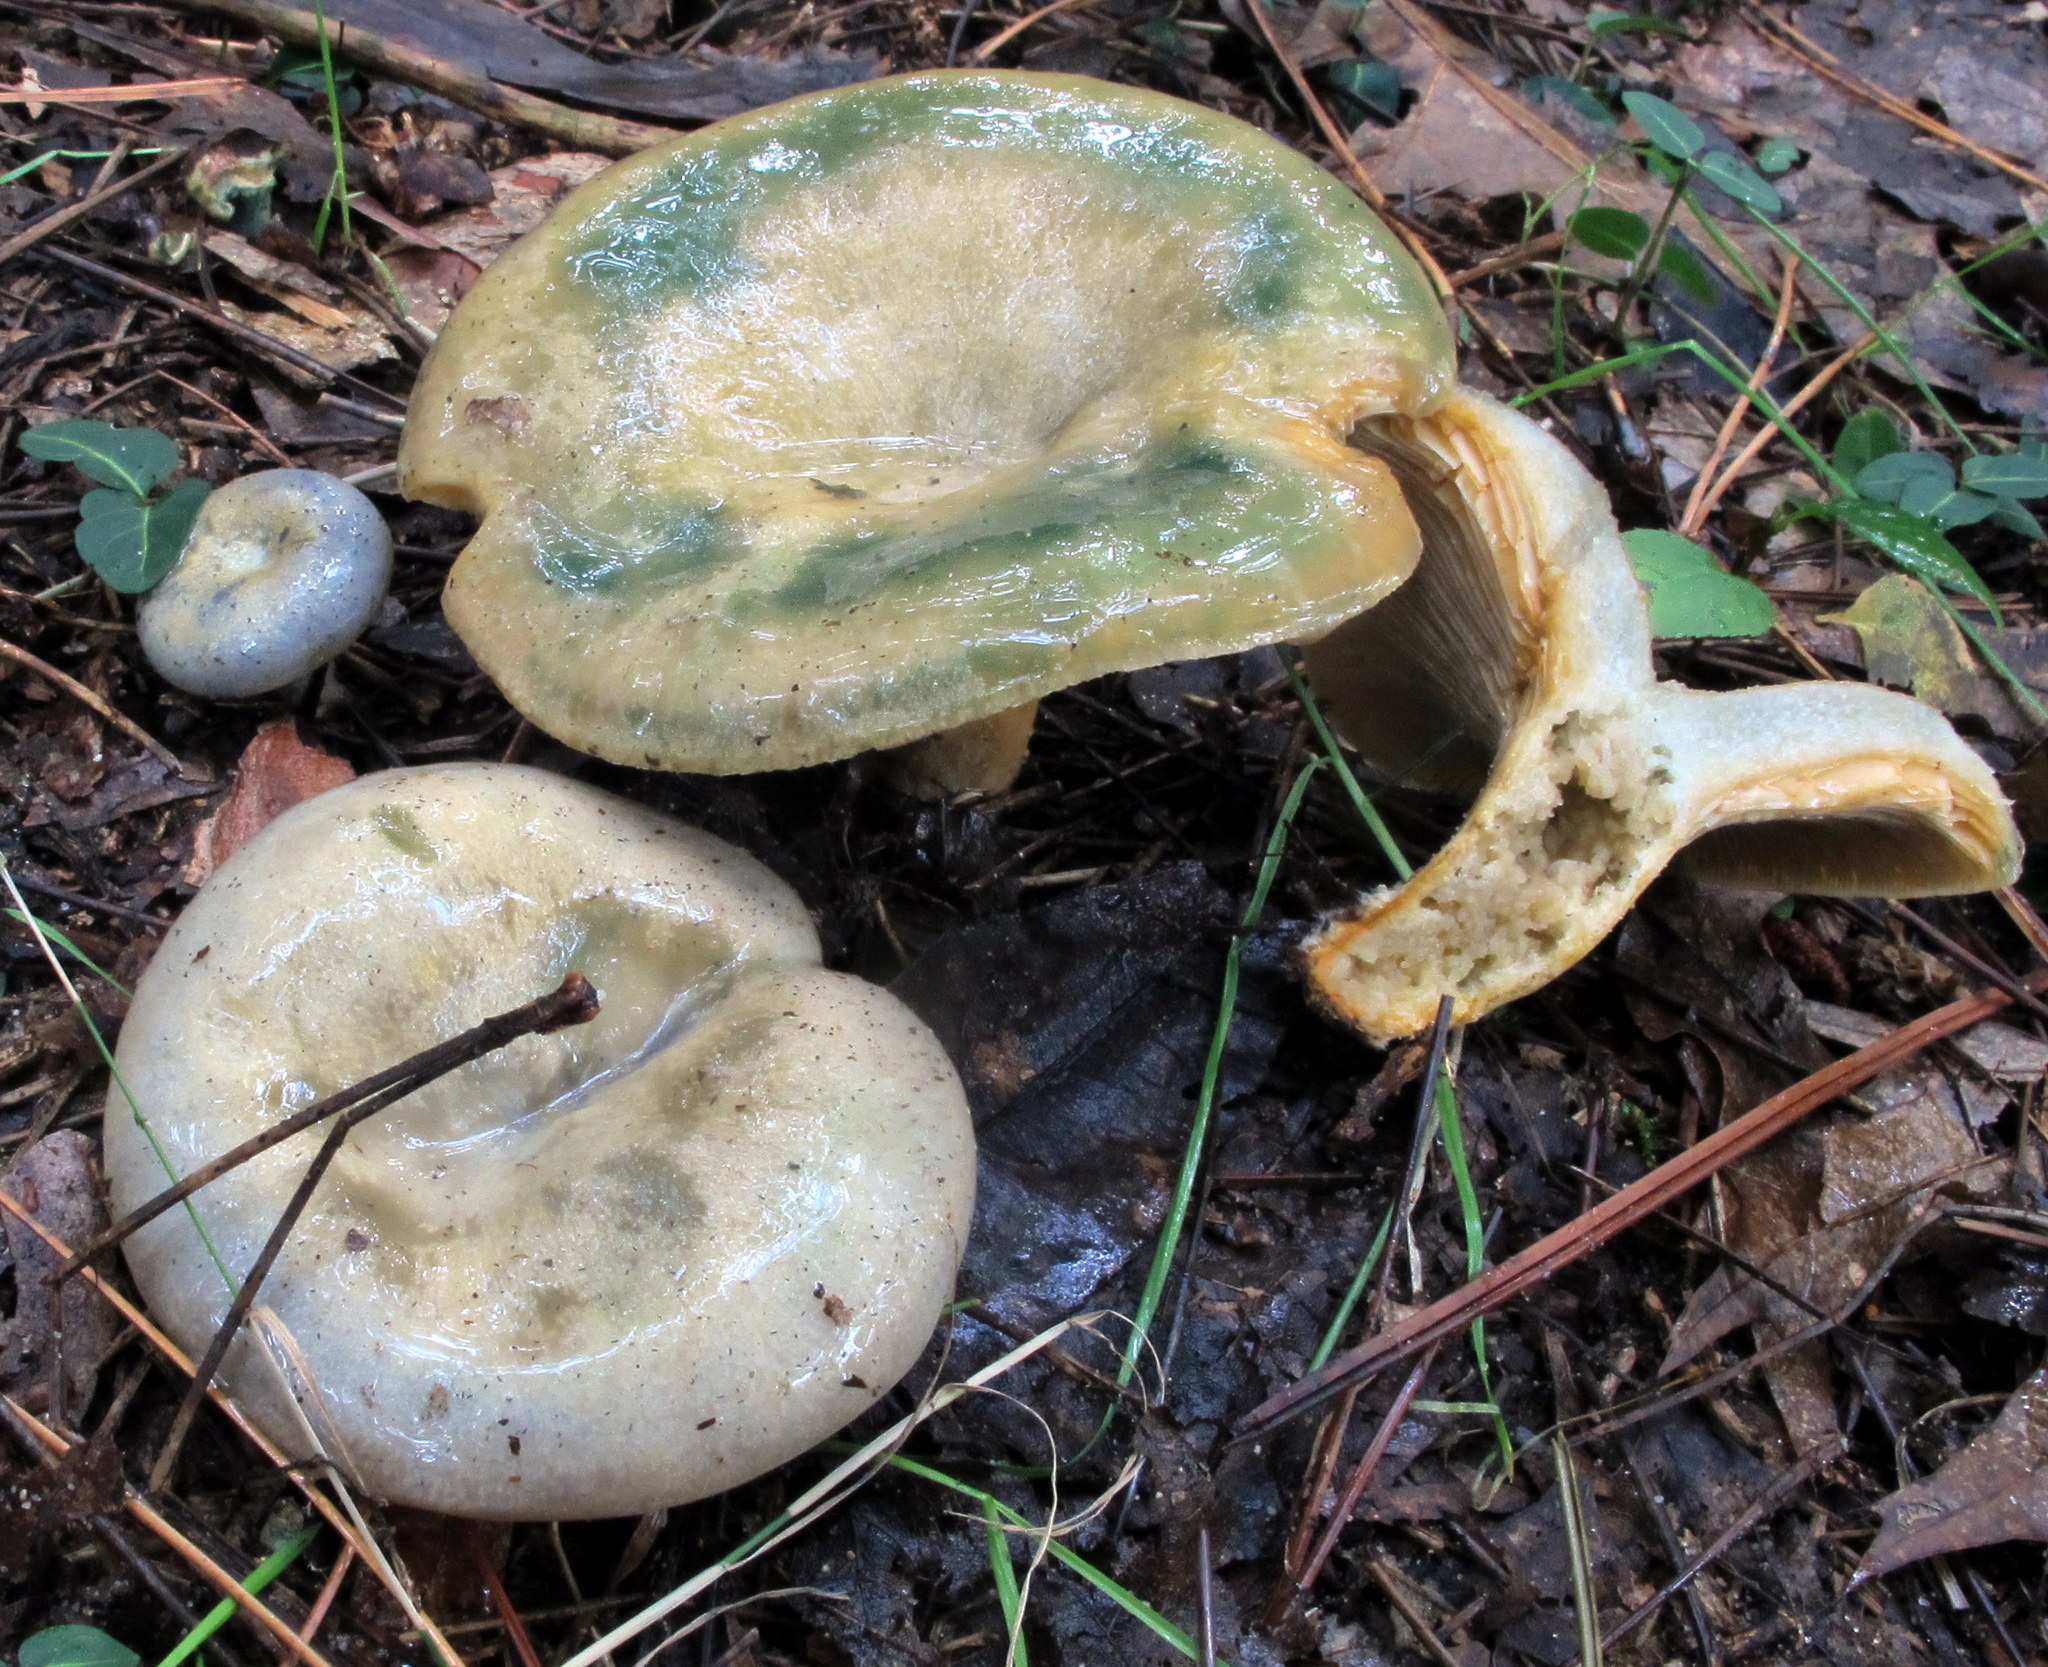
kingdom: Fungi
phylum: Basidiomycota
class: Agaricomycetes
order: Russulales
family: Russulaceae
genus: Lactarius
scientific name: Lactarius chelidonium
